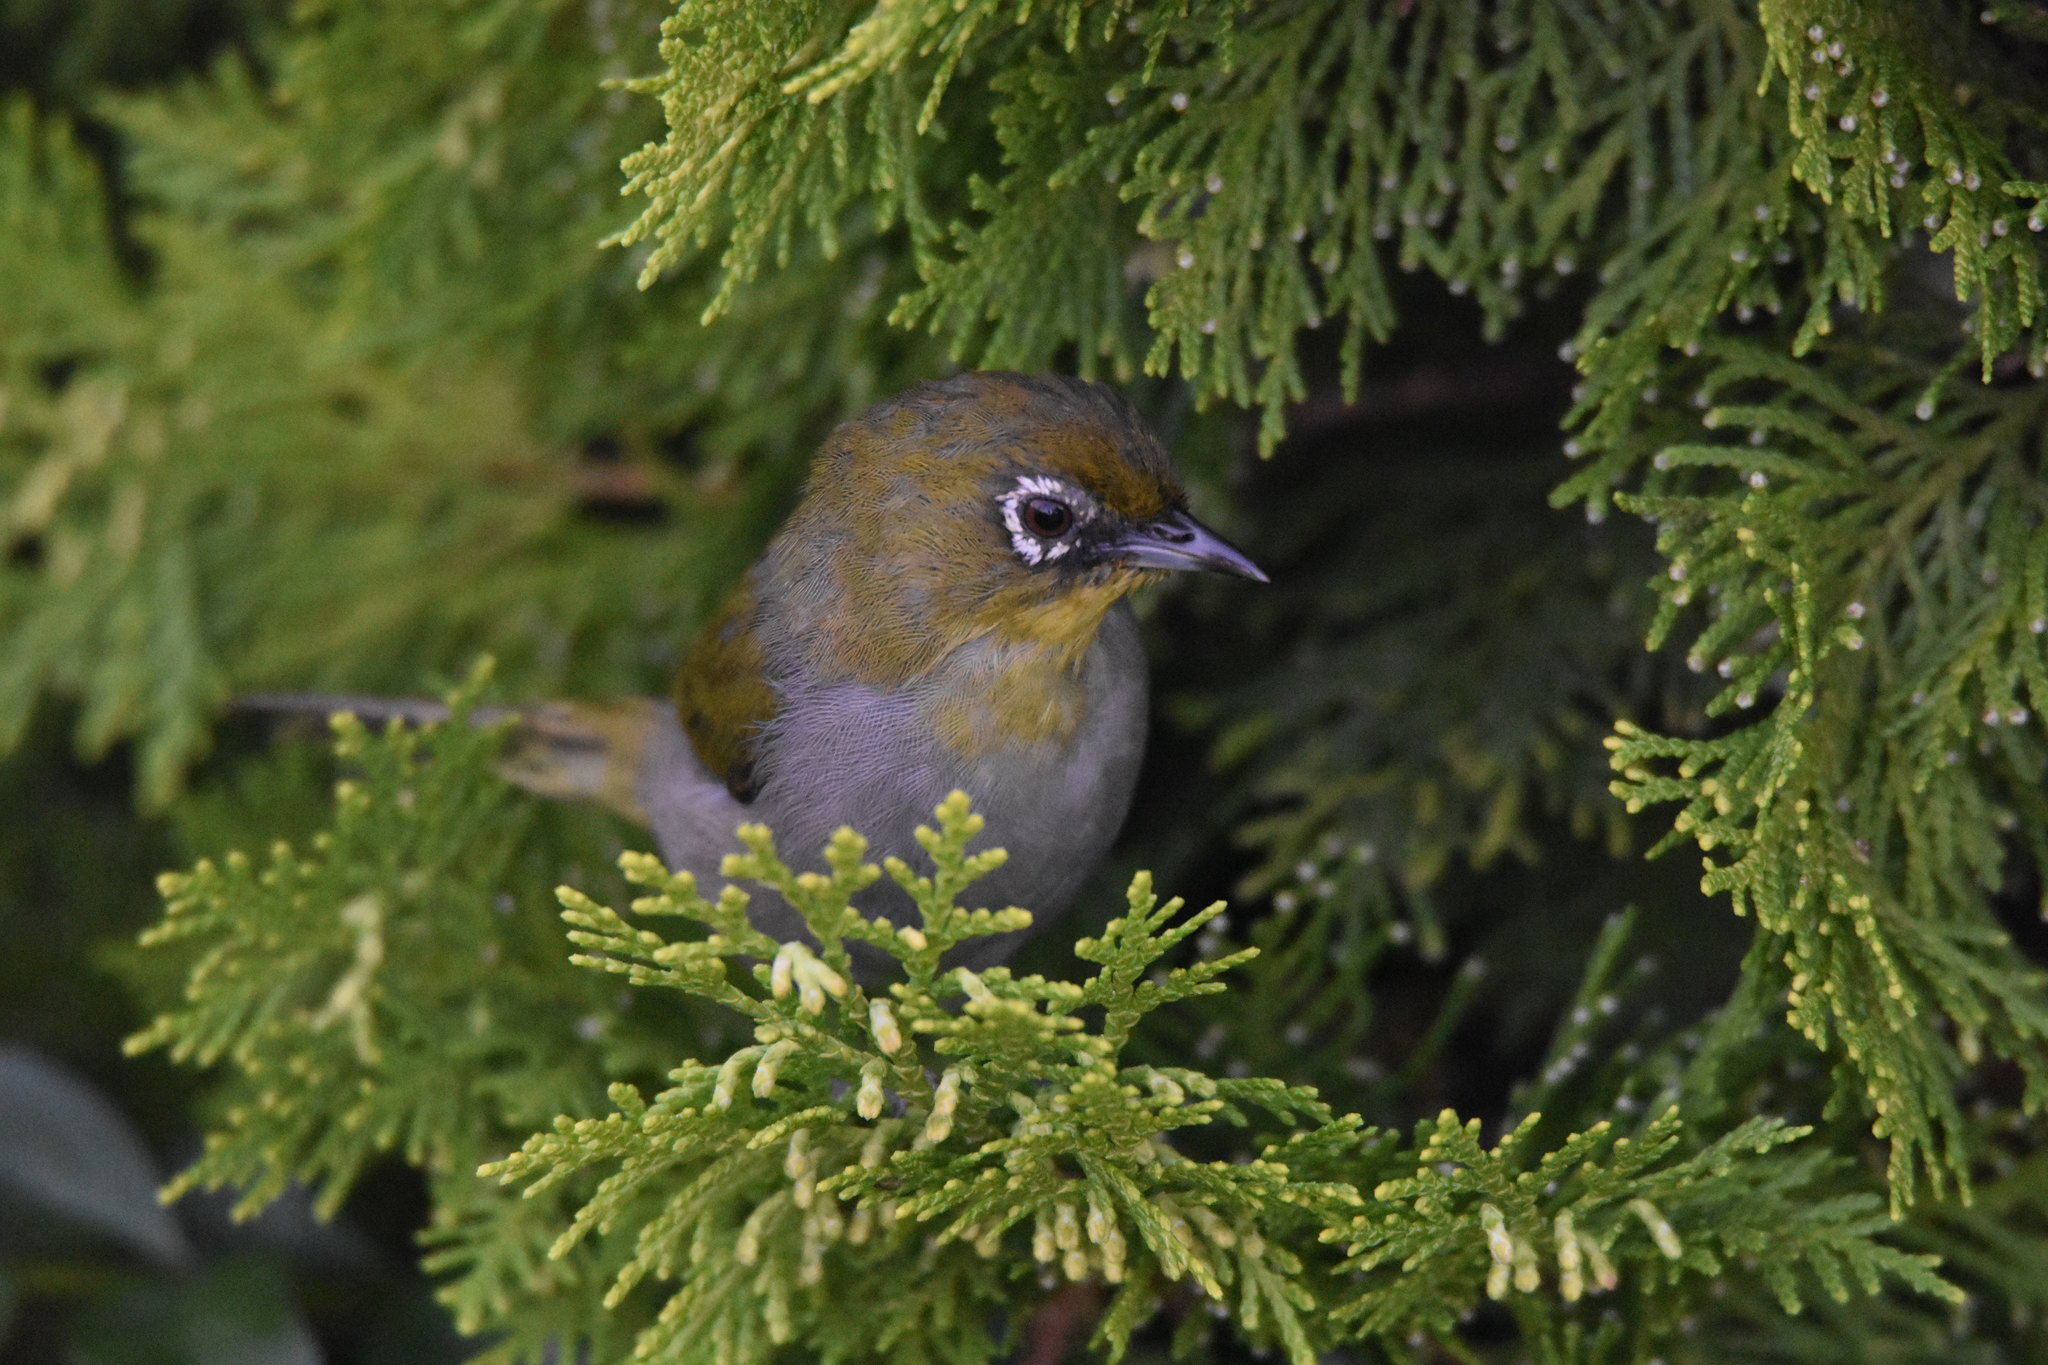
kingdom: Animalia
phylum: Chordata
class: Aves
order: Passeriformes
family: Zosteropidae
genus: Zosterops
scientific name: Zosterops virens
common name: Cape white-eye
